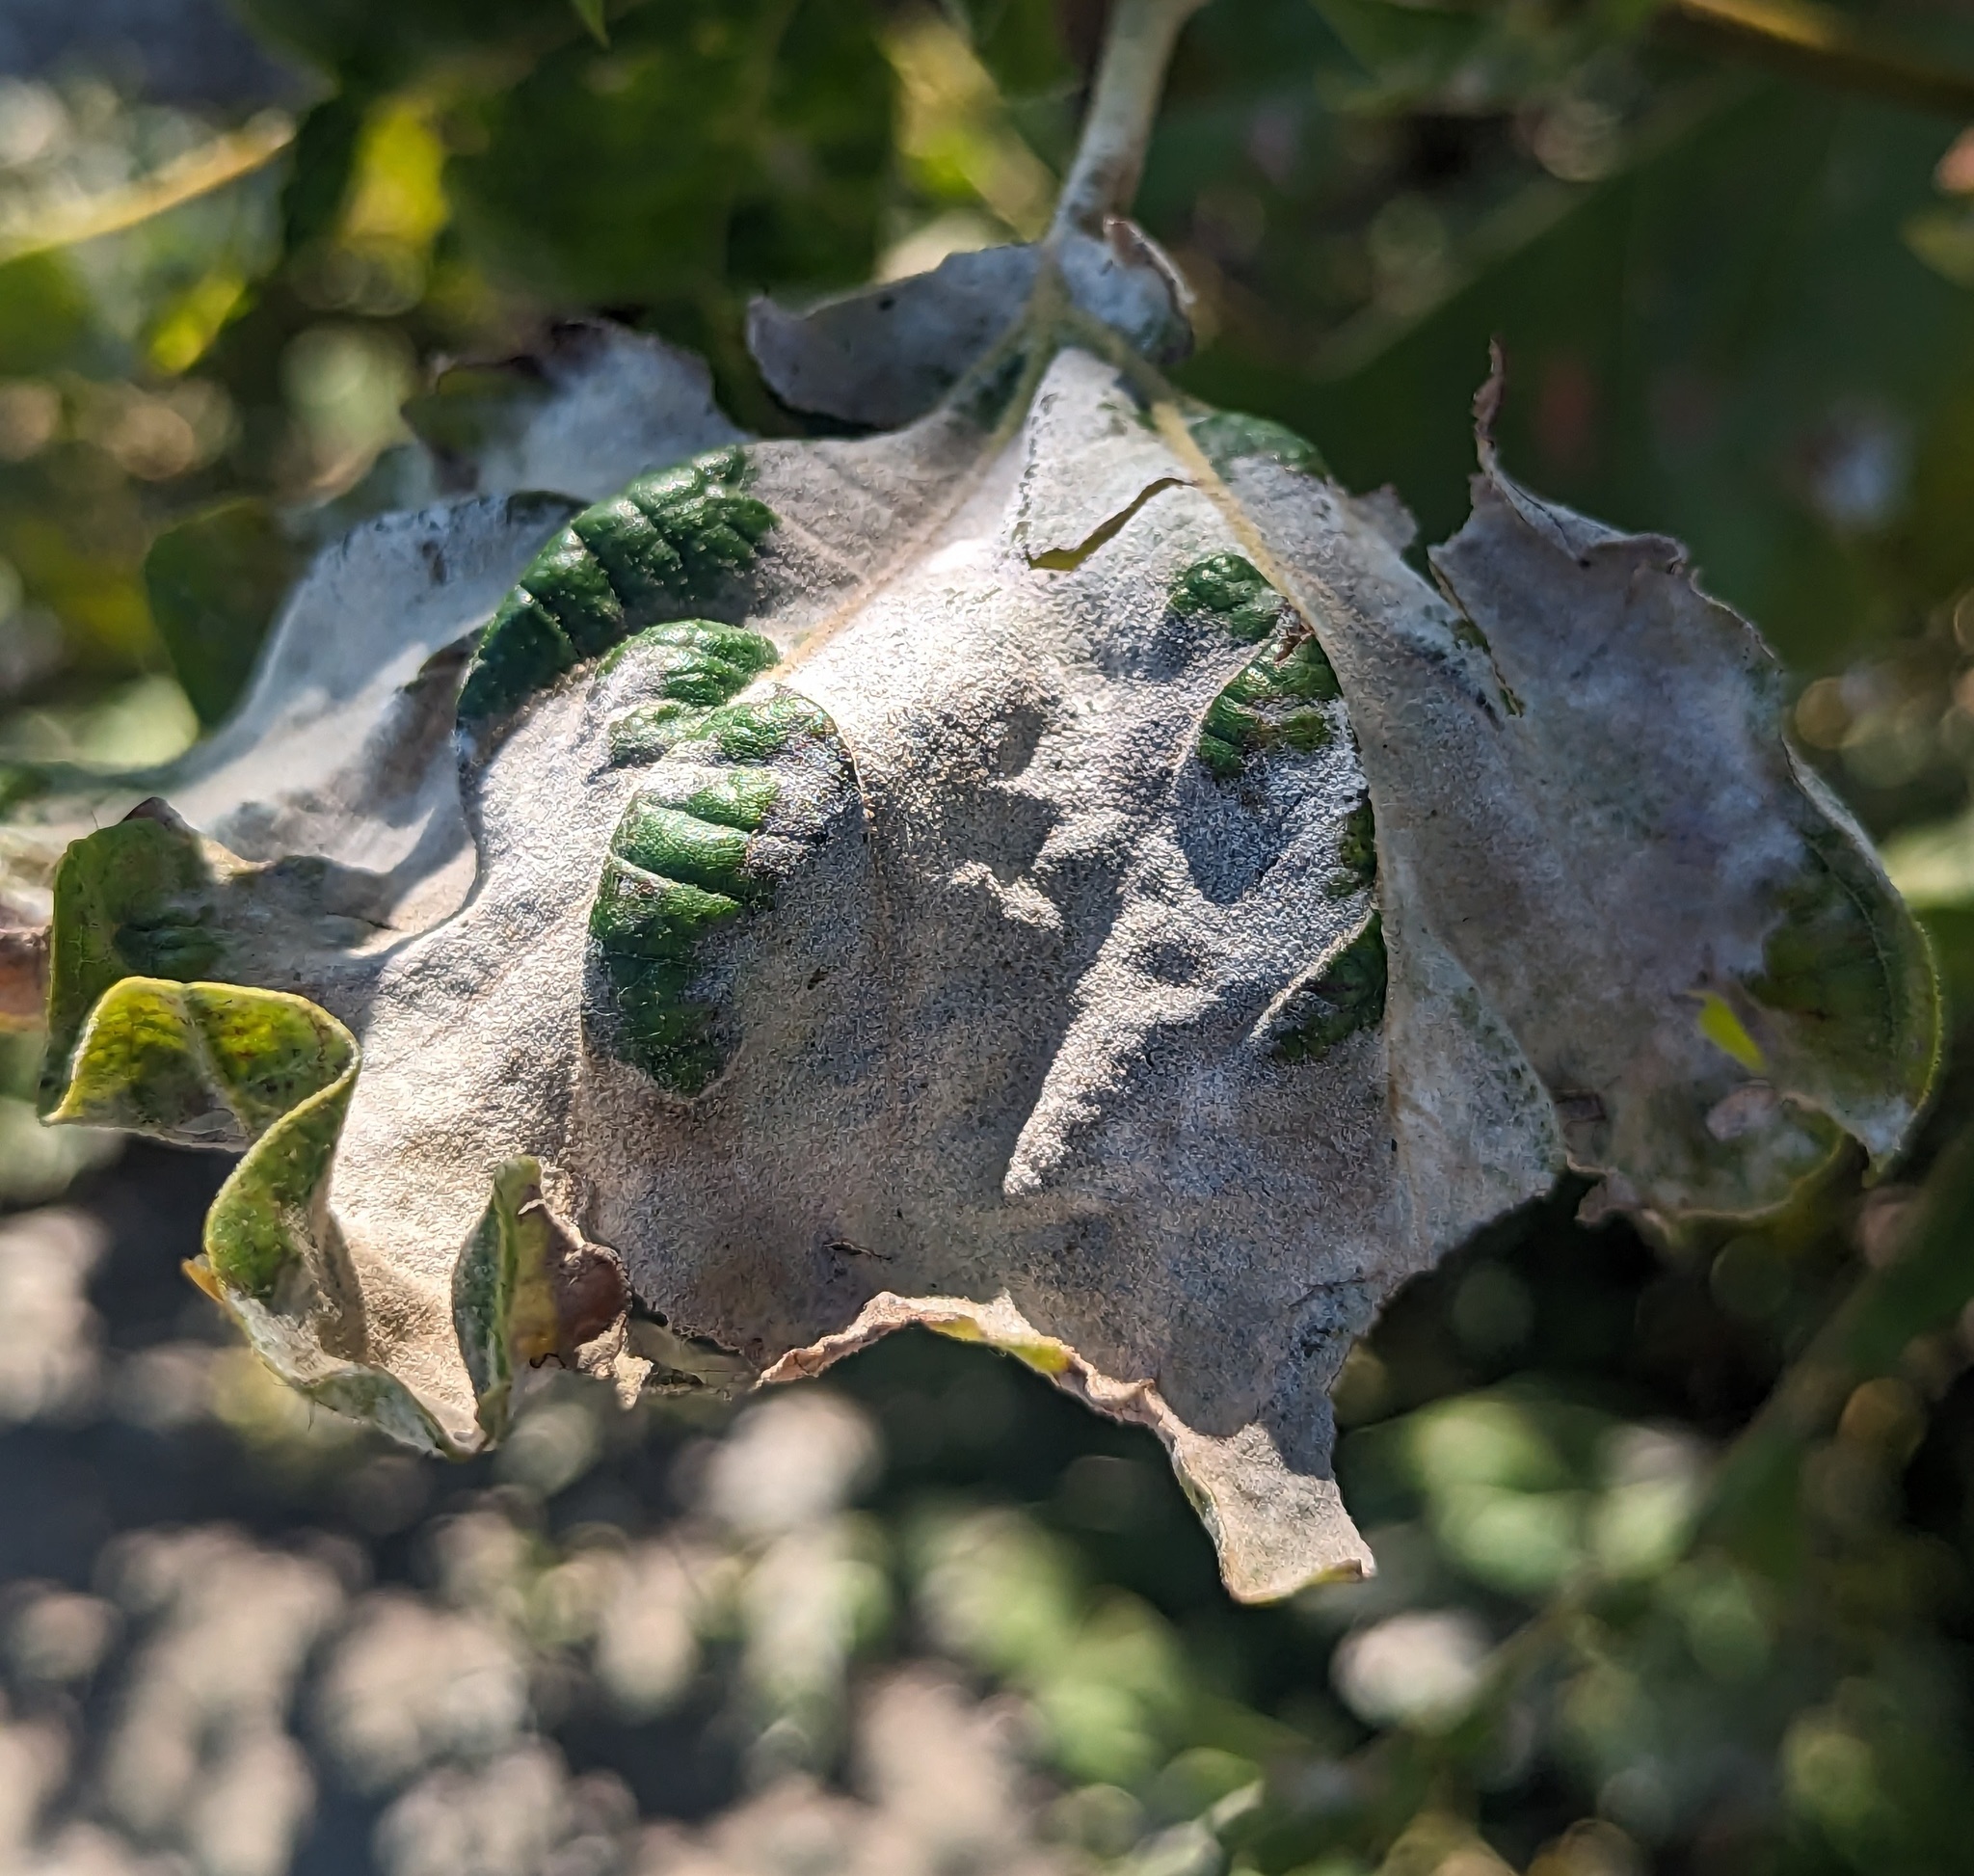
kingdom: Fungi
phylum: Ascomycota
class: Leotiomycetes
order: Helotiales
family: Erysiphaceae
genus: Erysiphe
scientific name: Erysiphe platani
